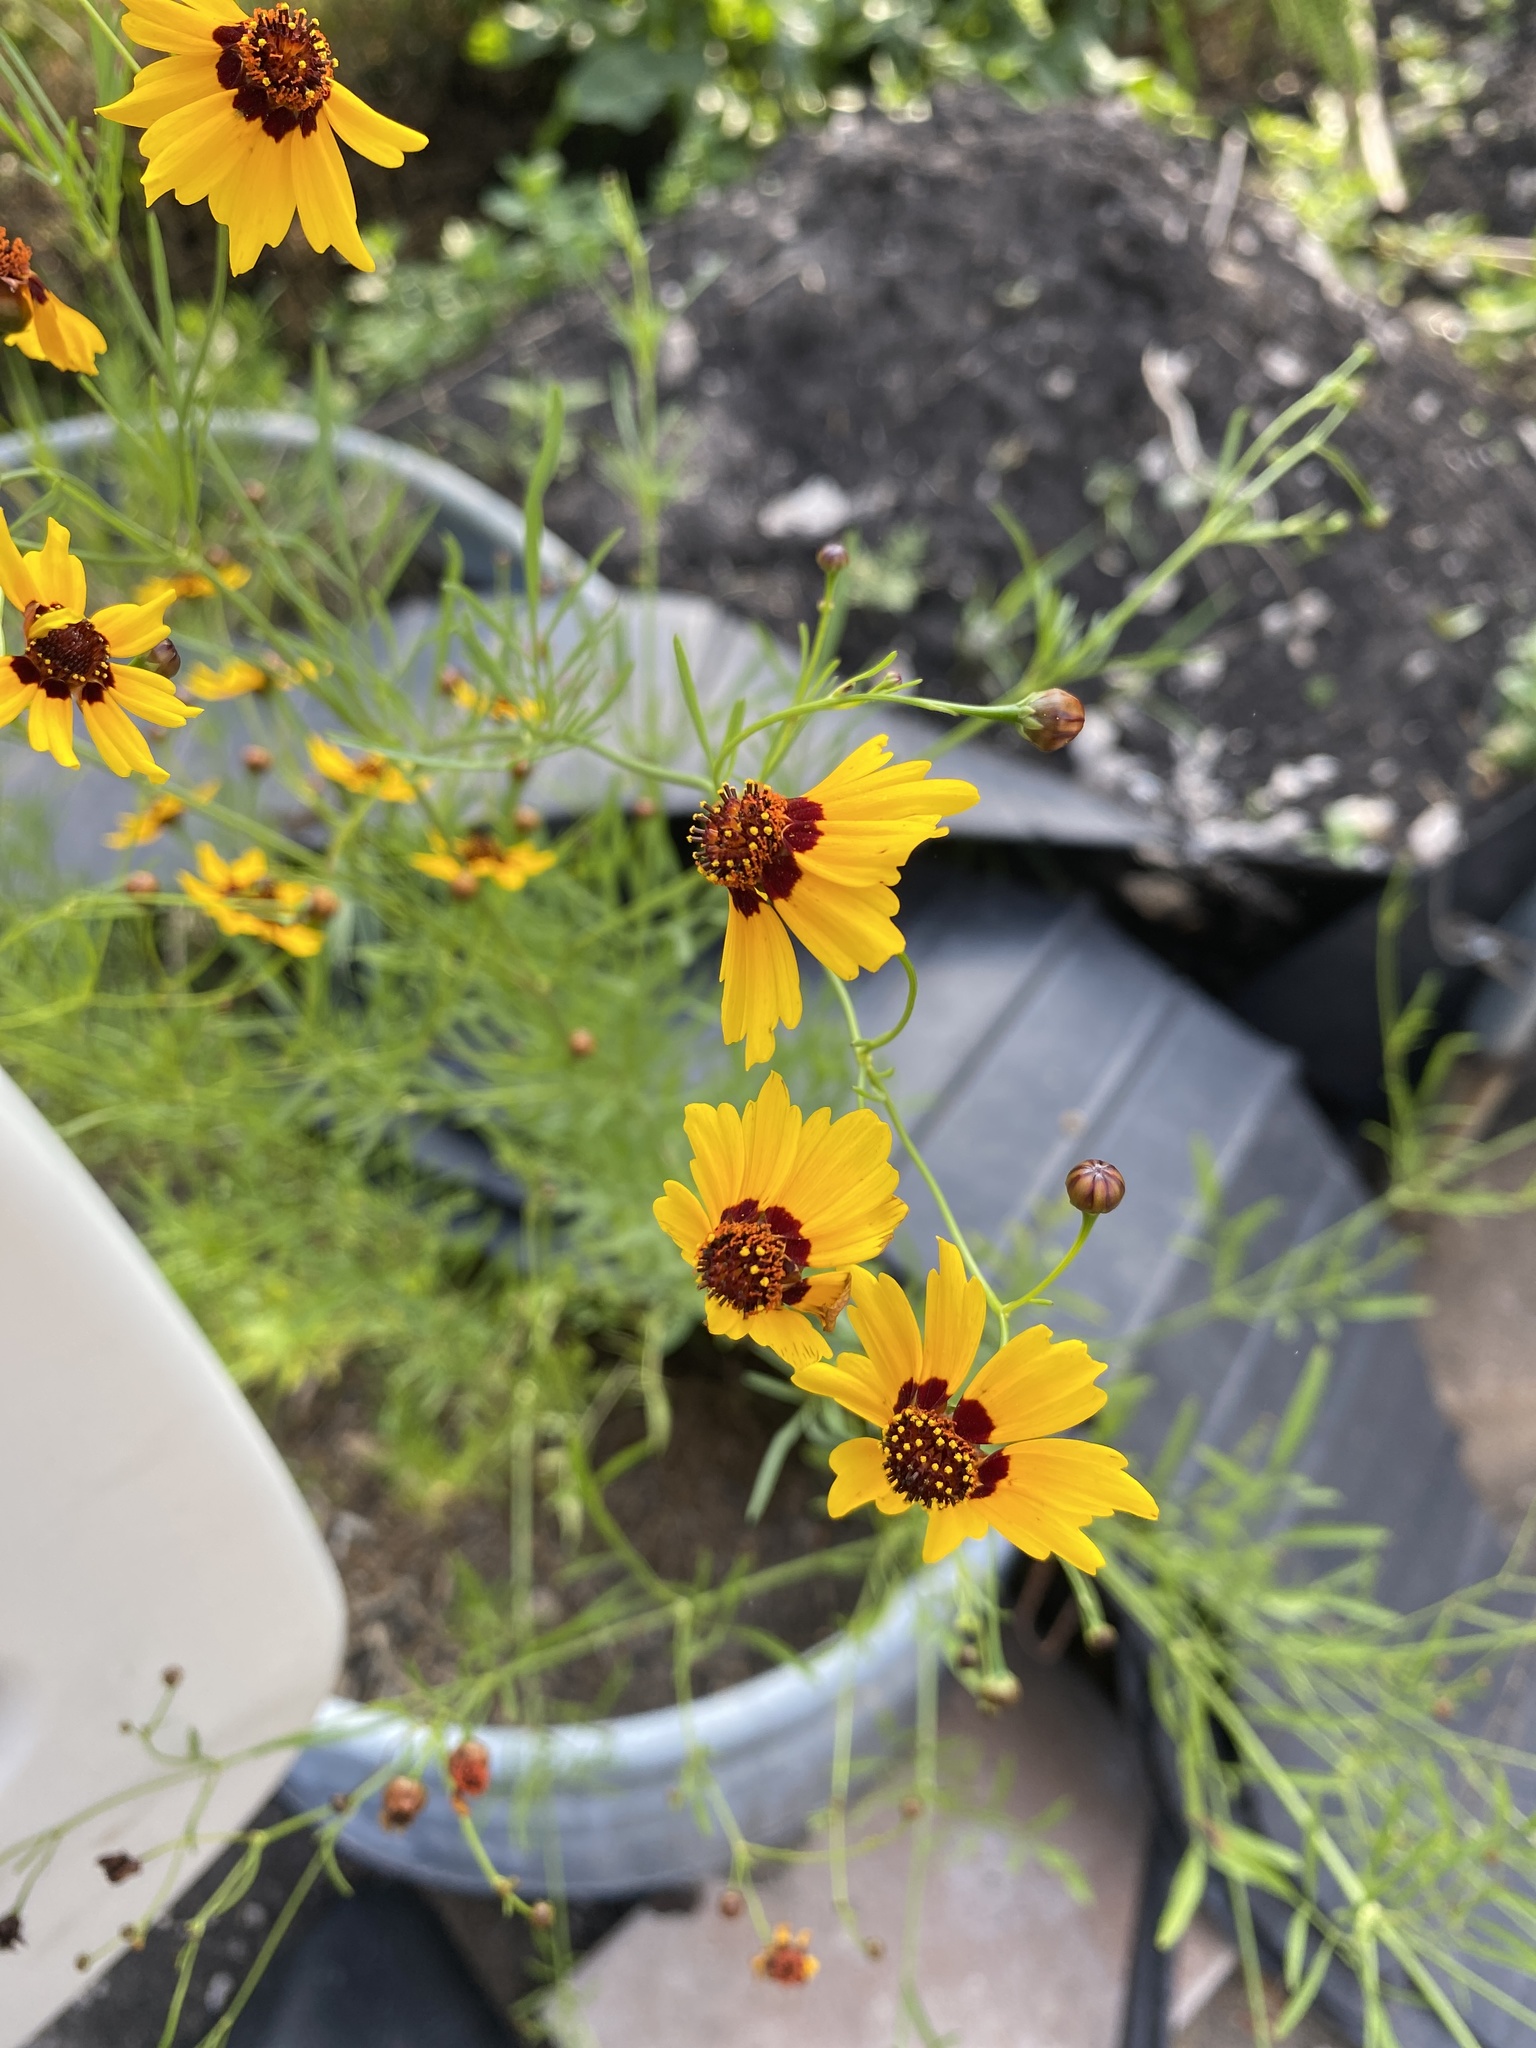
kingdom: Plantae
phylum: Tracheophyta
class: Magnoliopsida
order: Asterales
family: Asteraceae
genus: Coreopsis
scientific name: Coreopsis tinctoria
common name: Garden tickseed
